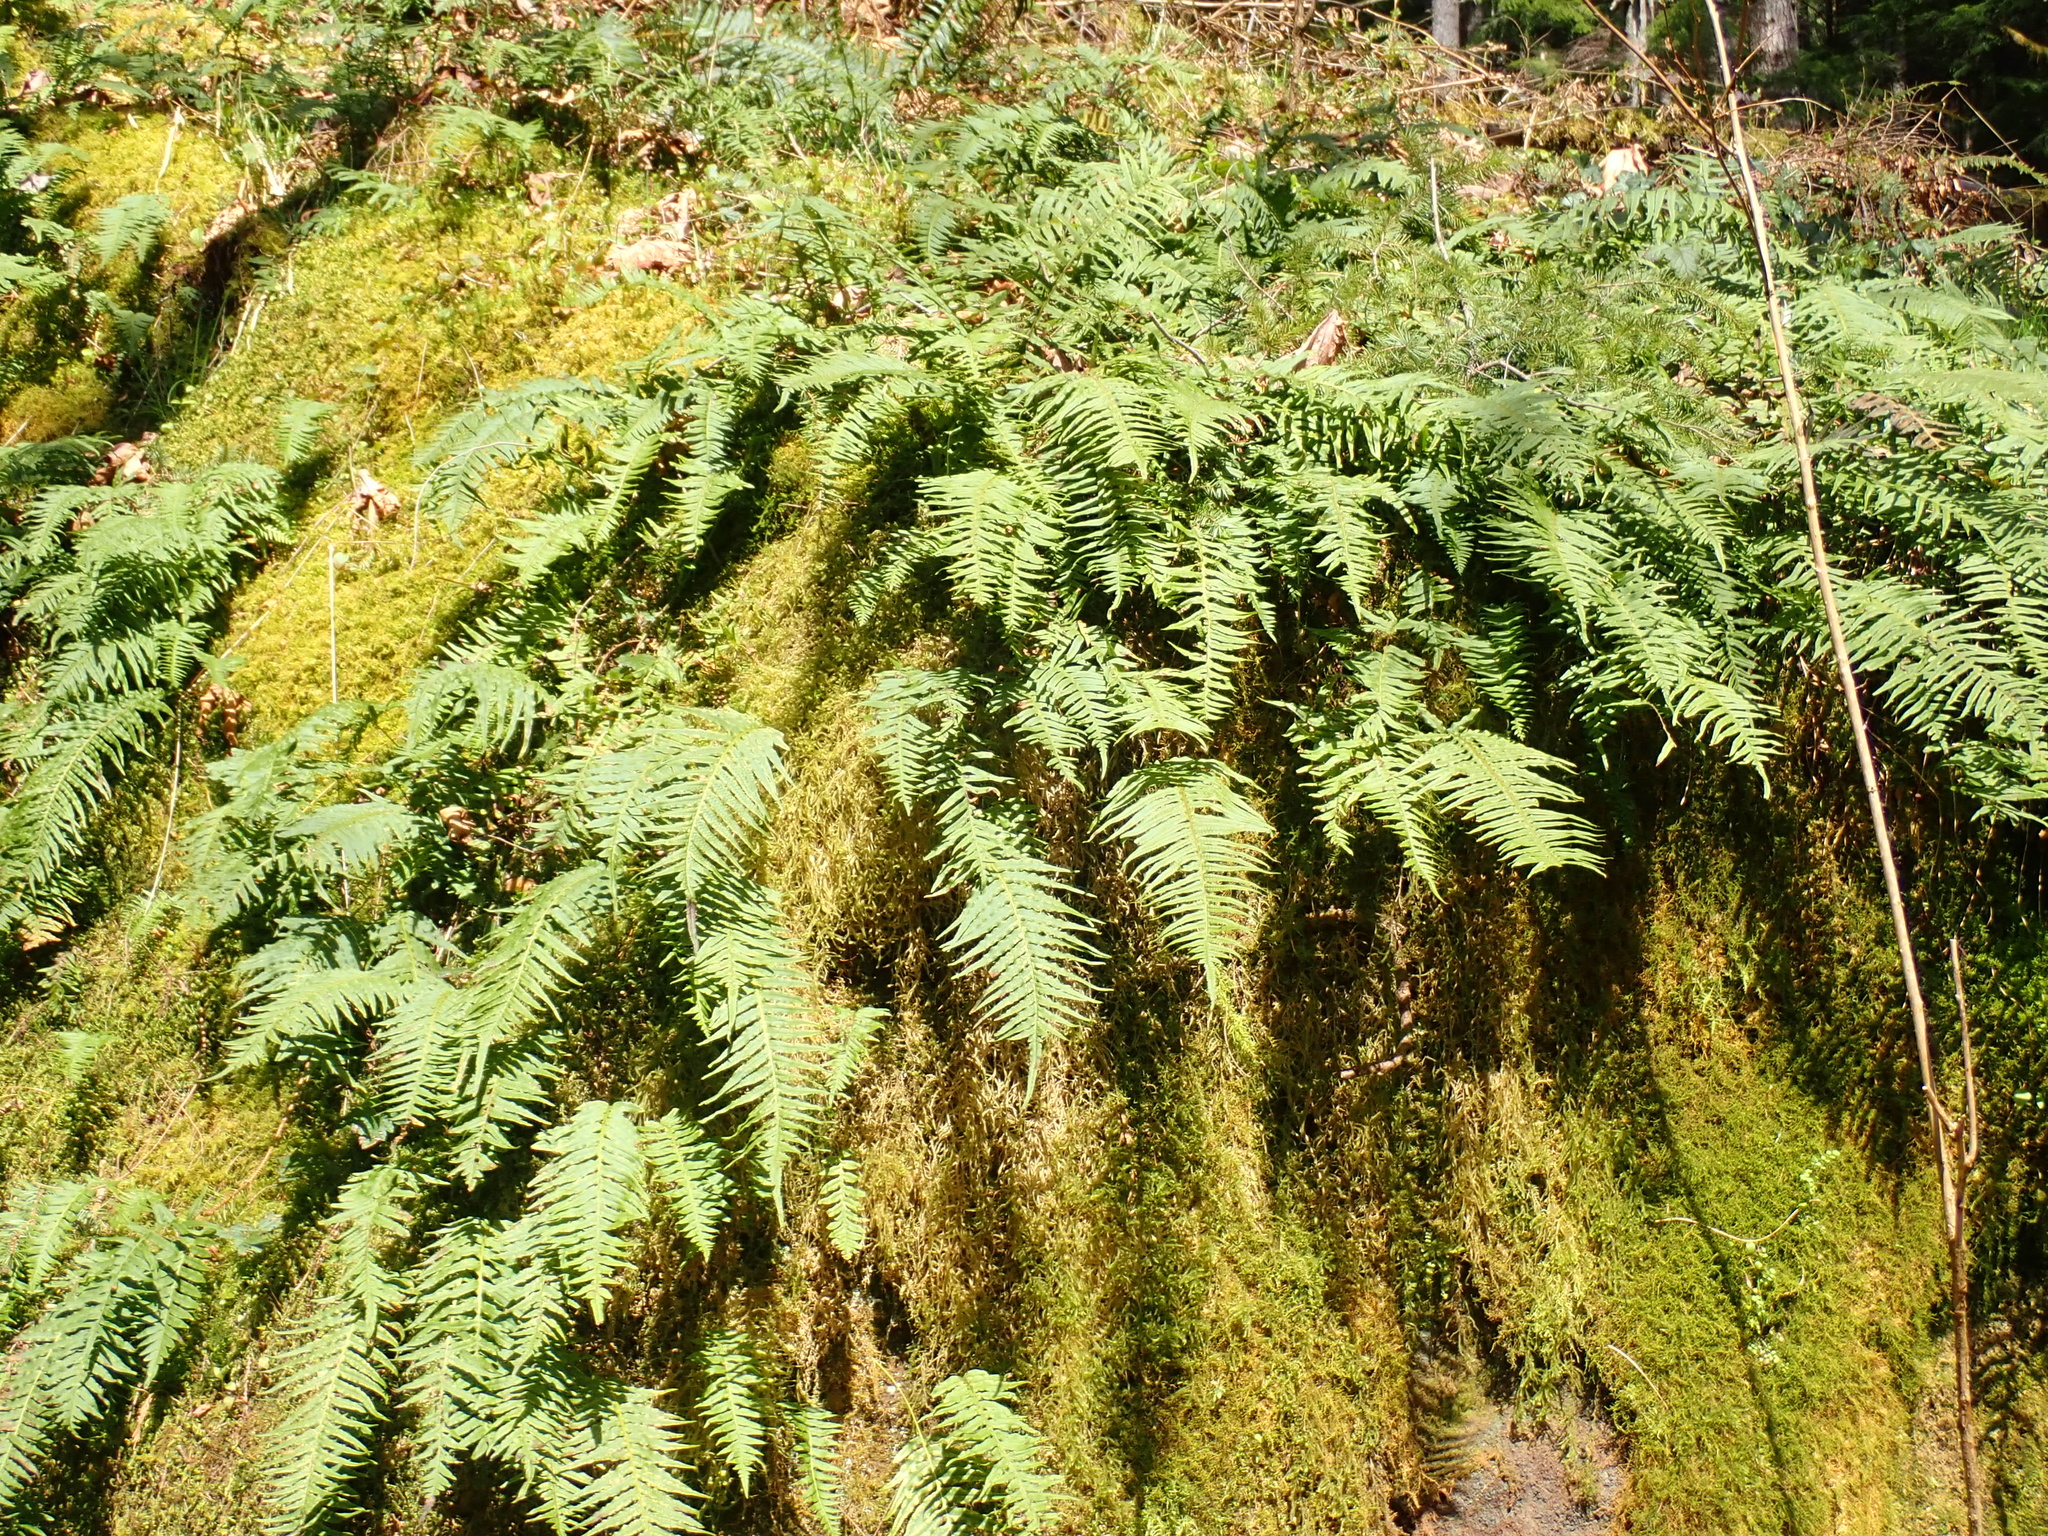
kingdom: Plantae
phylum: Tracheophyta
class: Polypodiopsida
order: Polypodiales
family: Polypodiaceae
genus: Polypodium
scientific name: Polypodium glycyrrhiza
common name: Licorice fern
